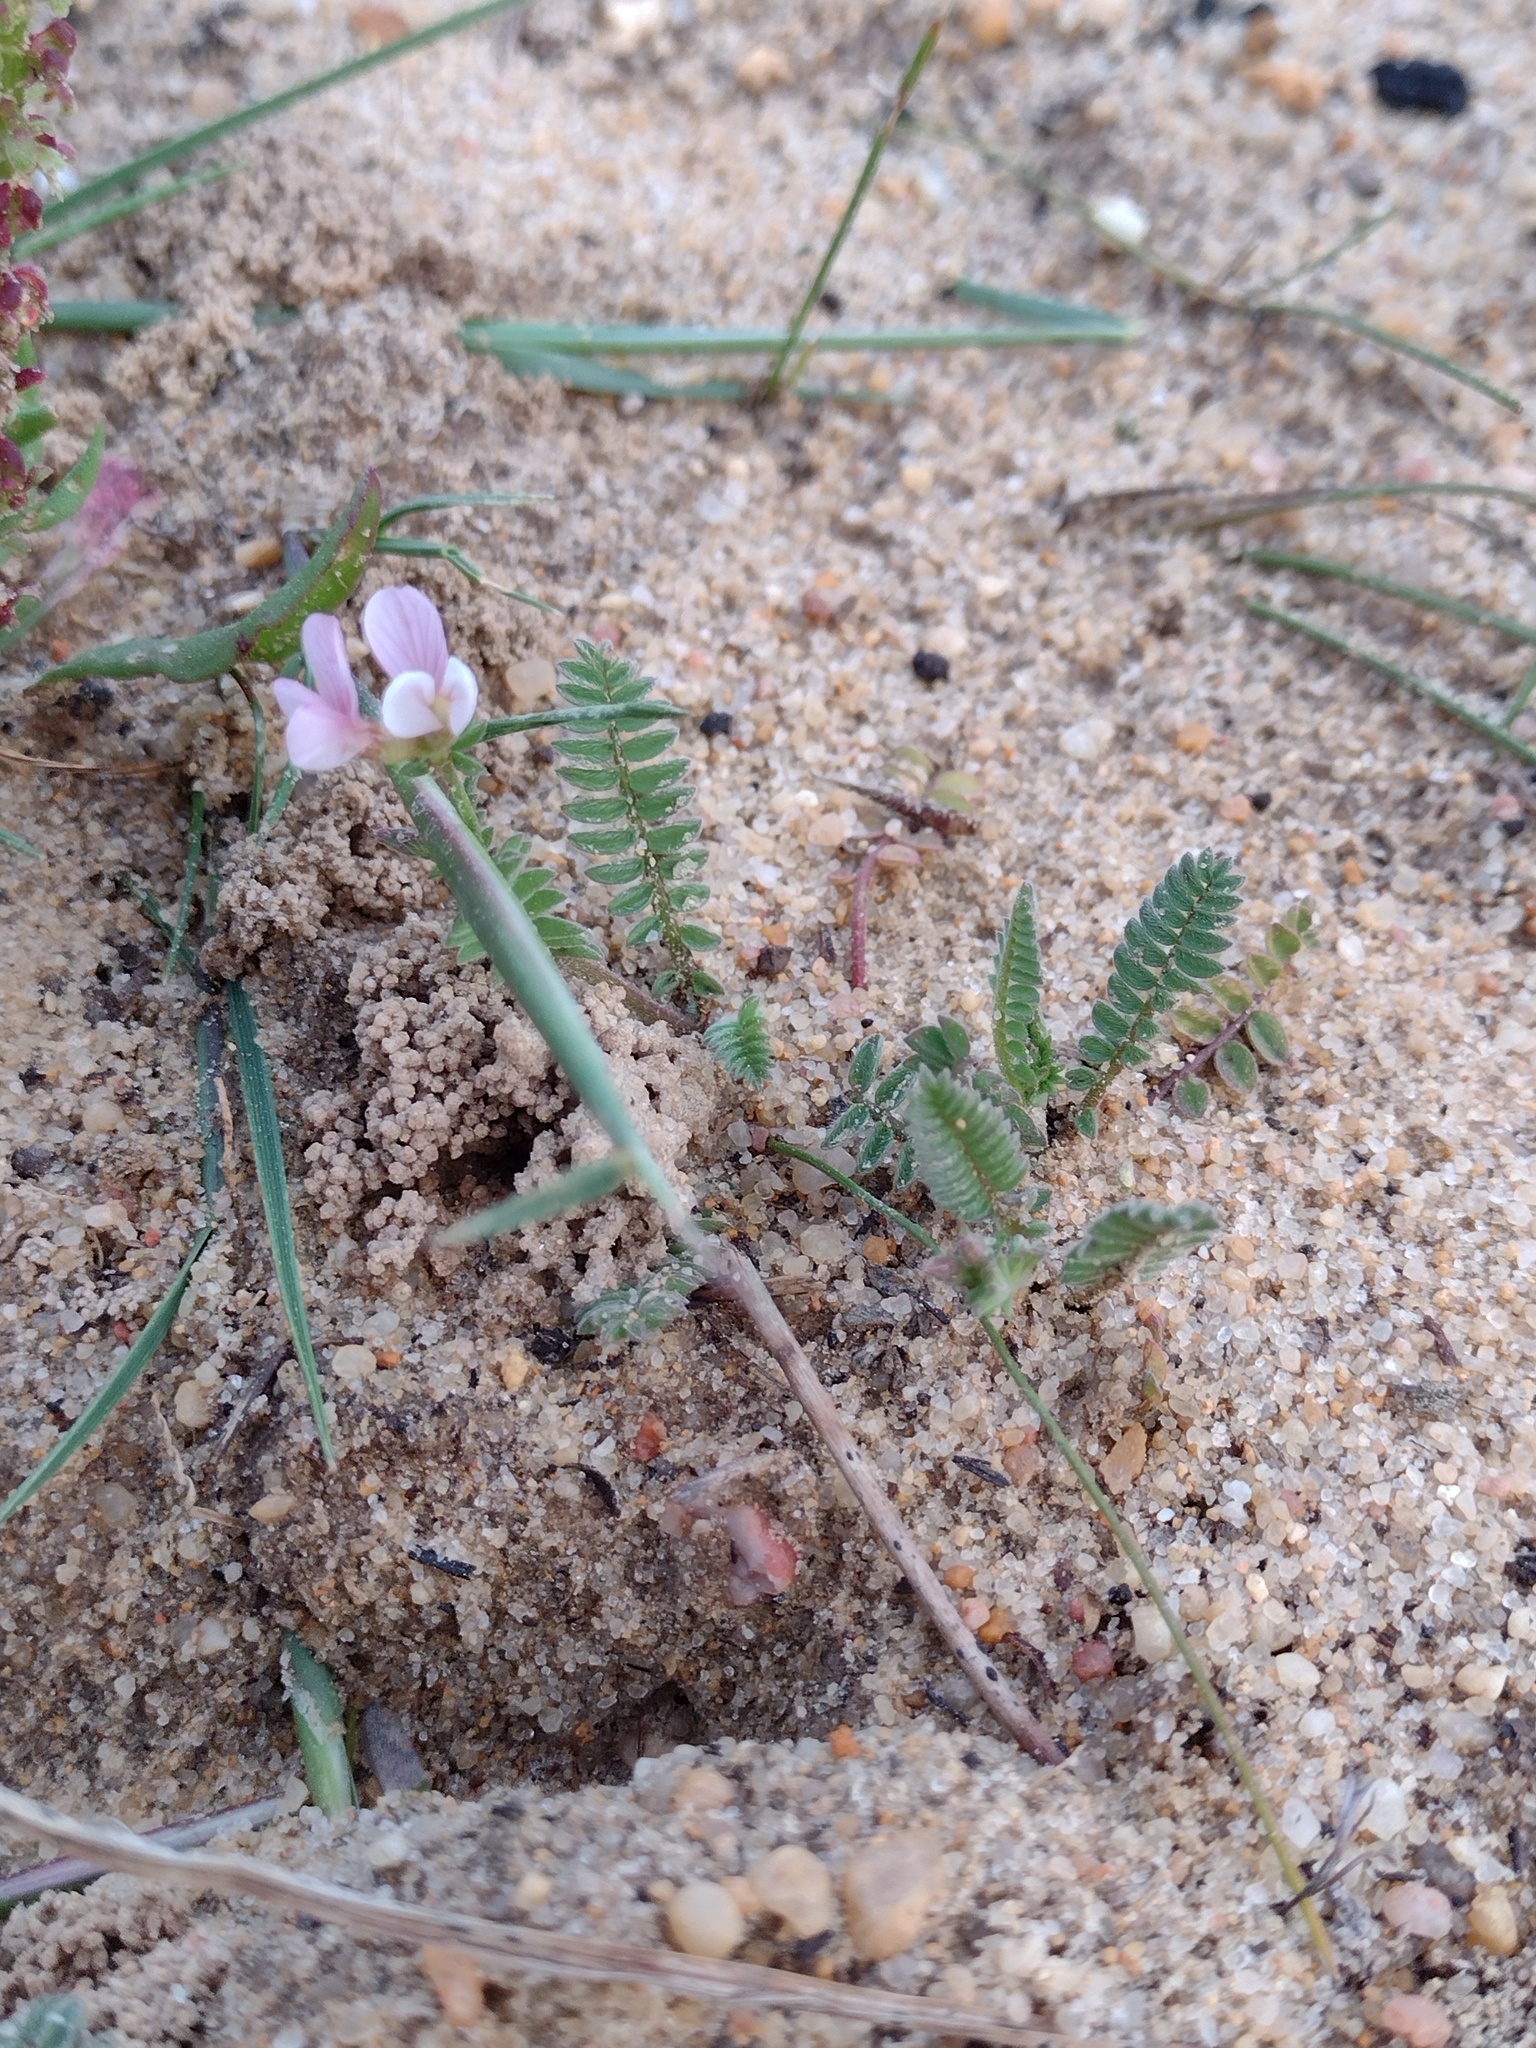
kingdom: Plantae
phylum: Tracheophyta
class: Magnoliopsida
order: Fabales
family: Fabaceae
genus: Ornithopus
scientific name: Ornithopus sativus
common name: Serradella
